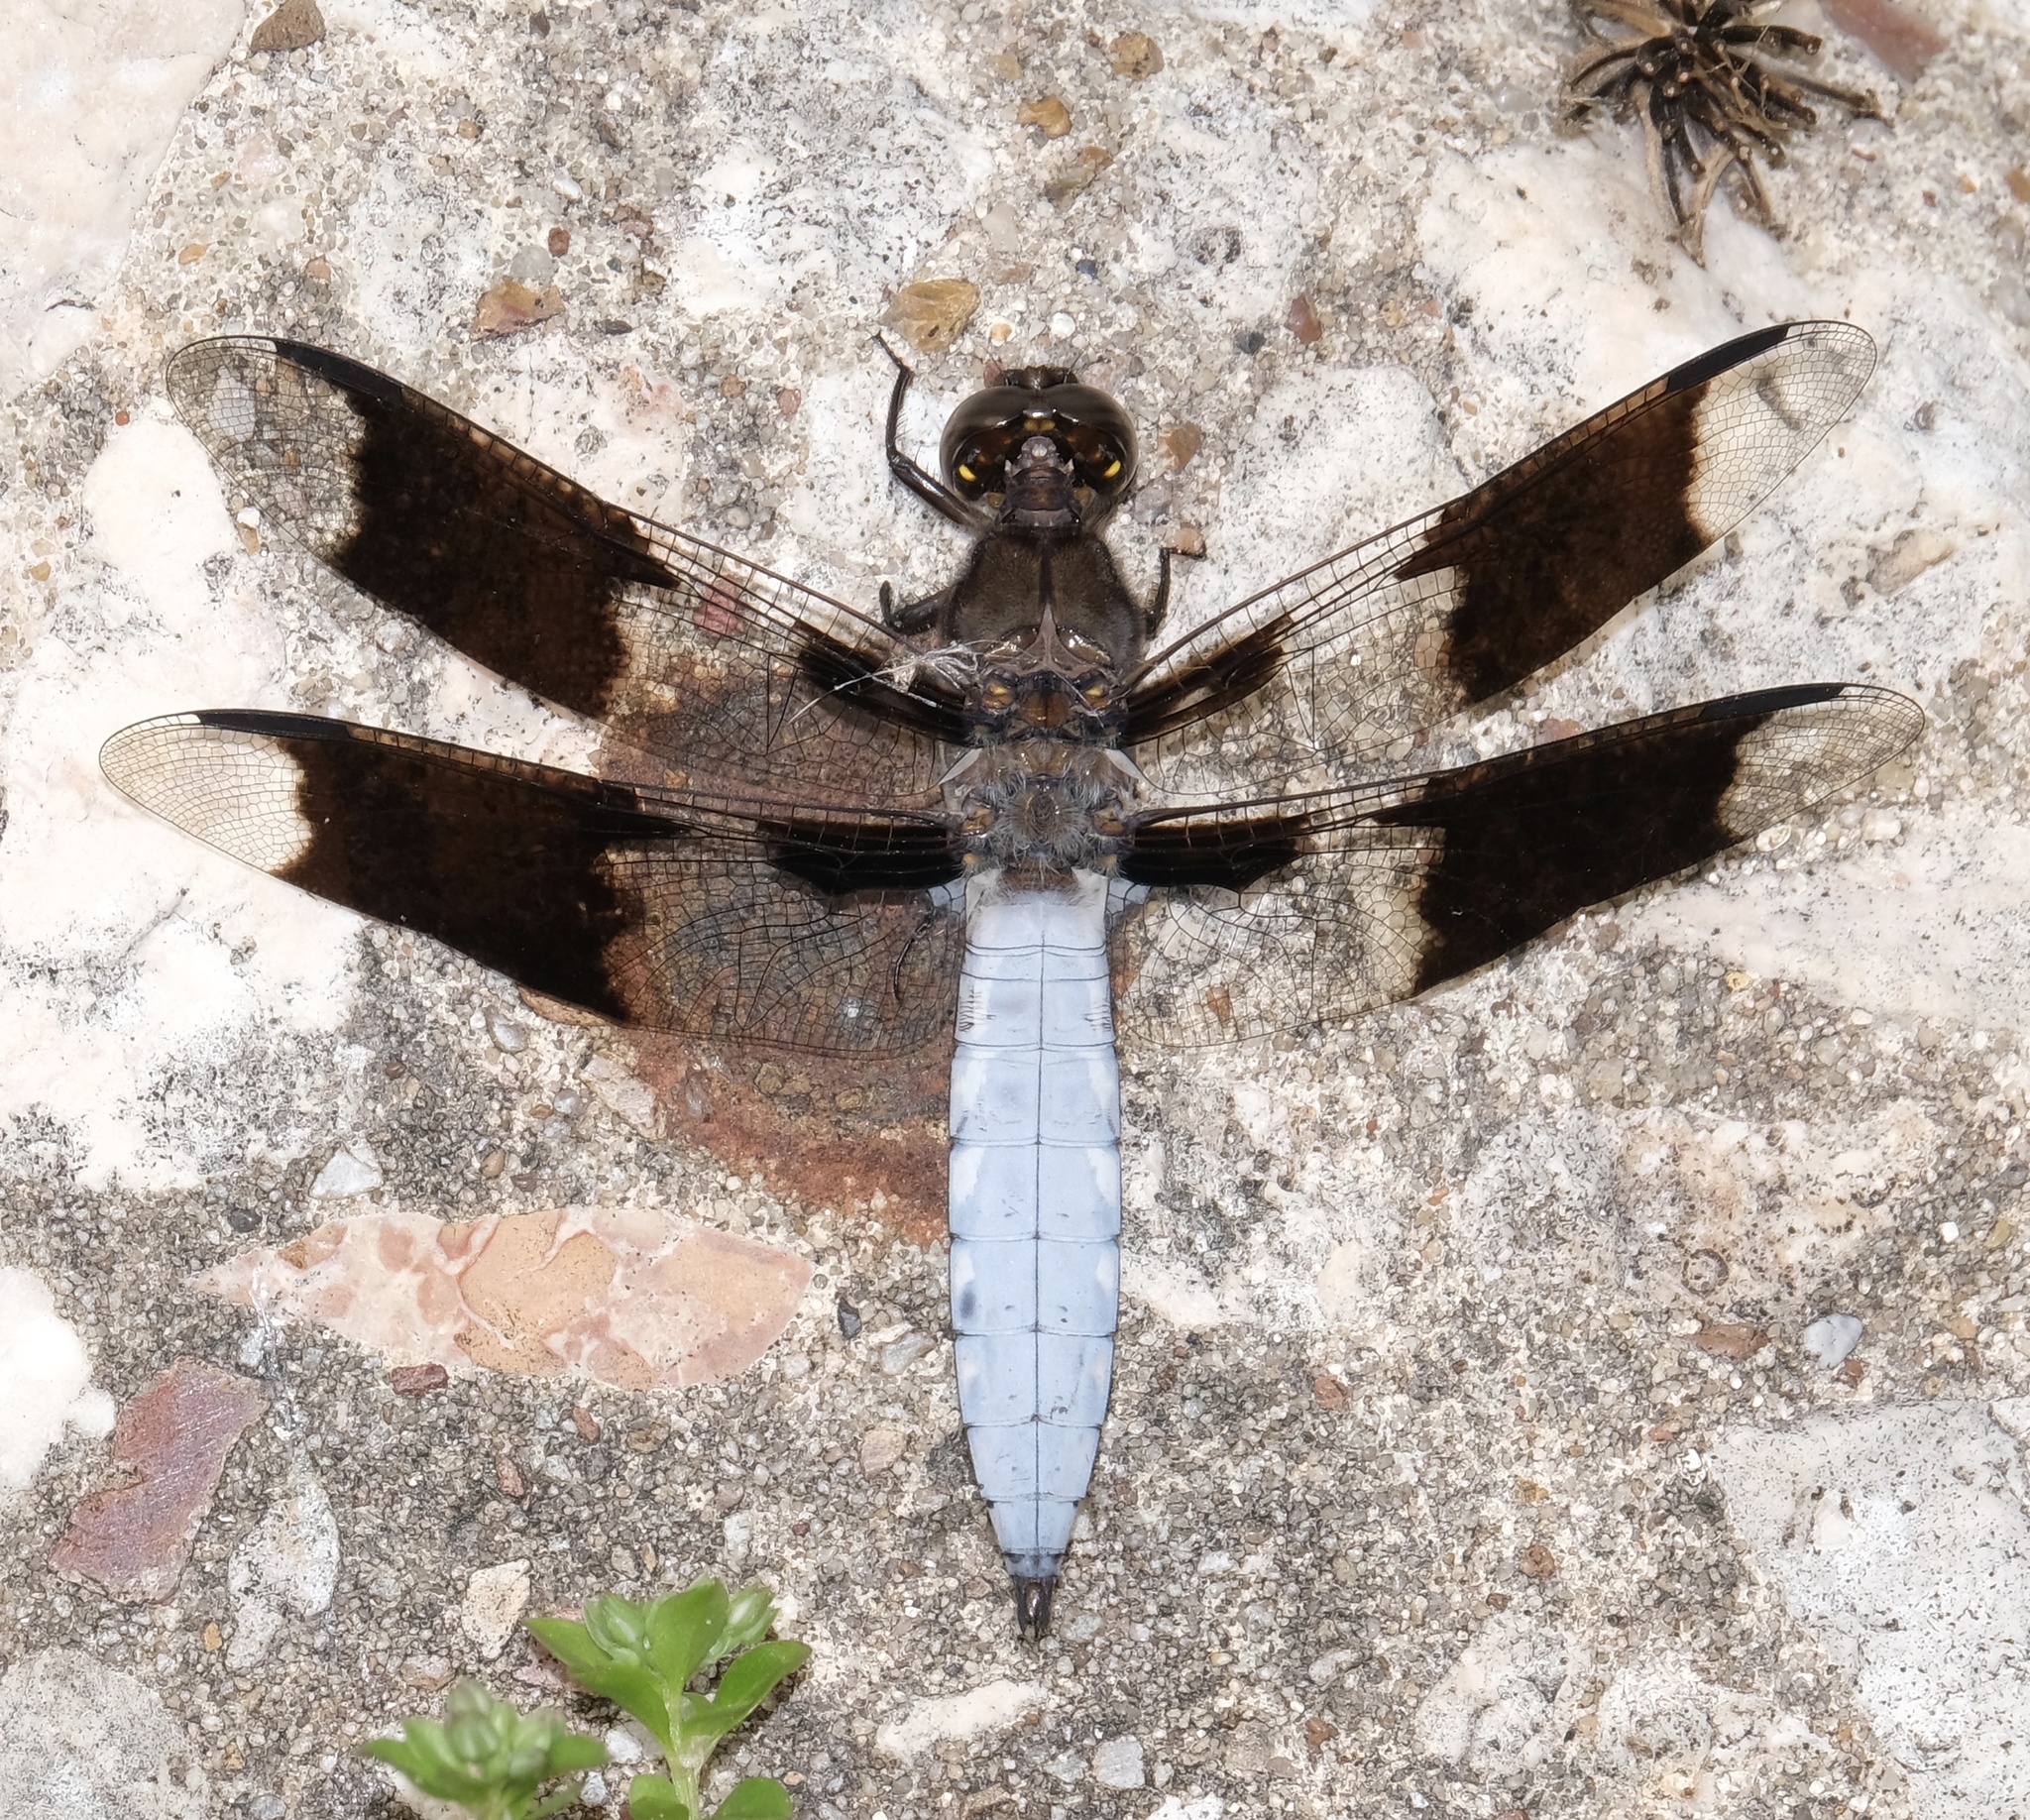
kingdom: Animalia
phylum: Arthropoda
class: Insecta
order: Odonata
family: Libellulidae
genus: Plathemis
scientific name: Plathemis lydia
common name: Common whitetail
